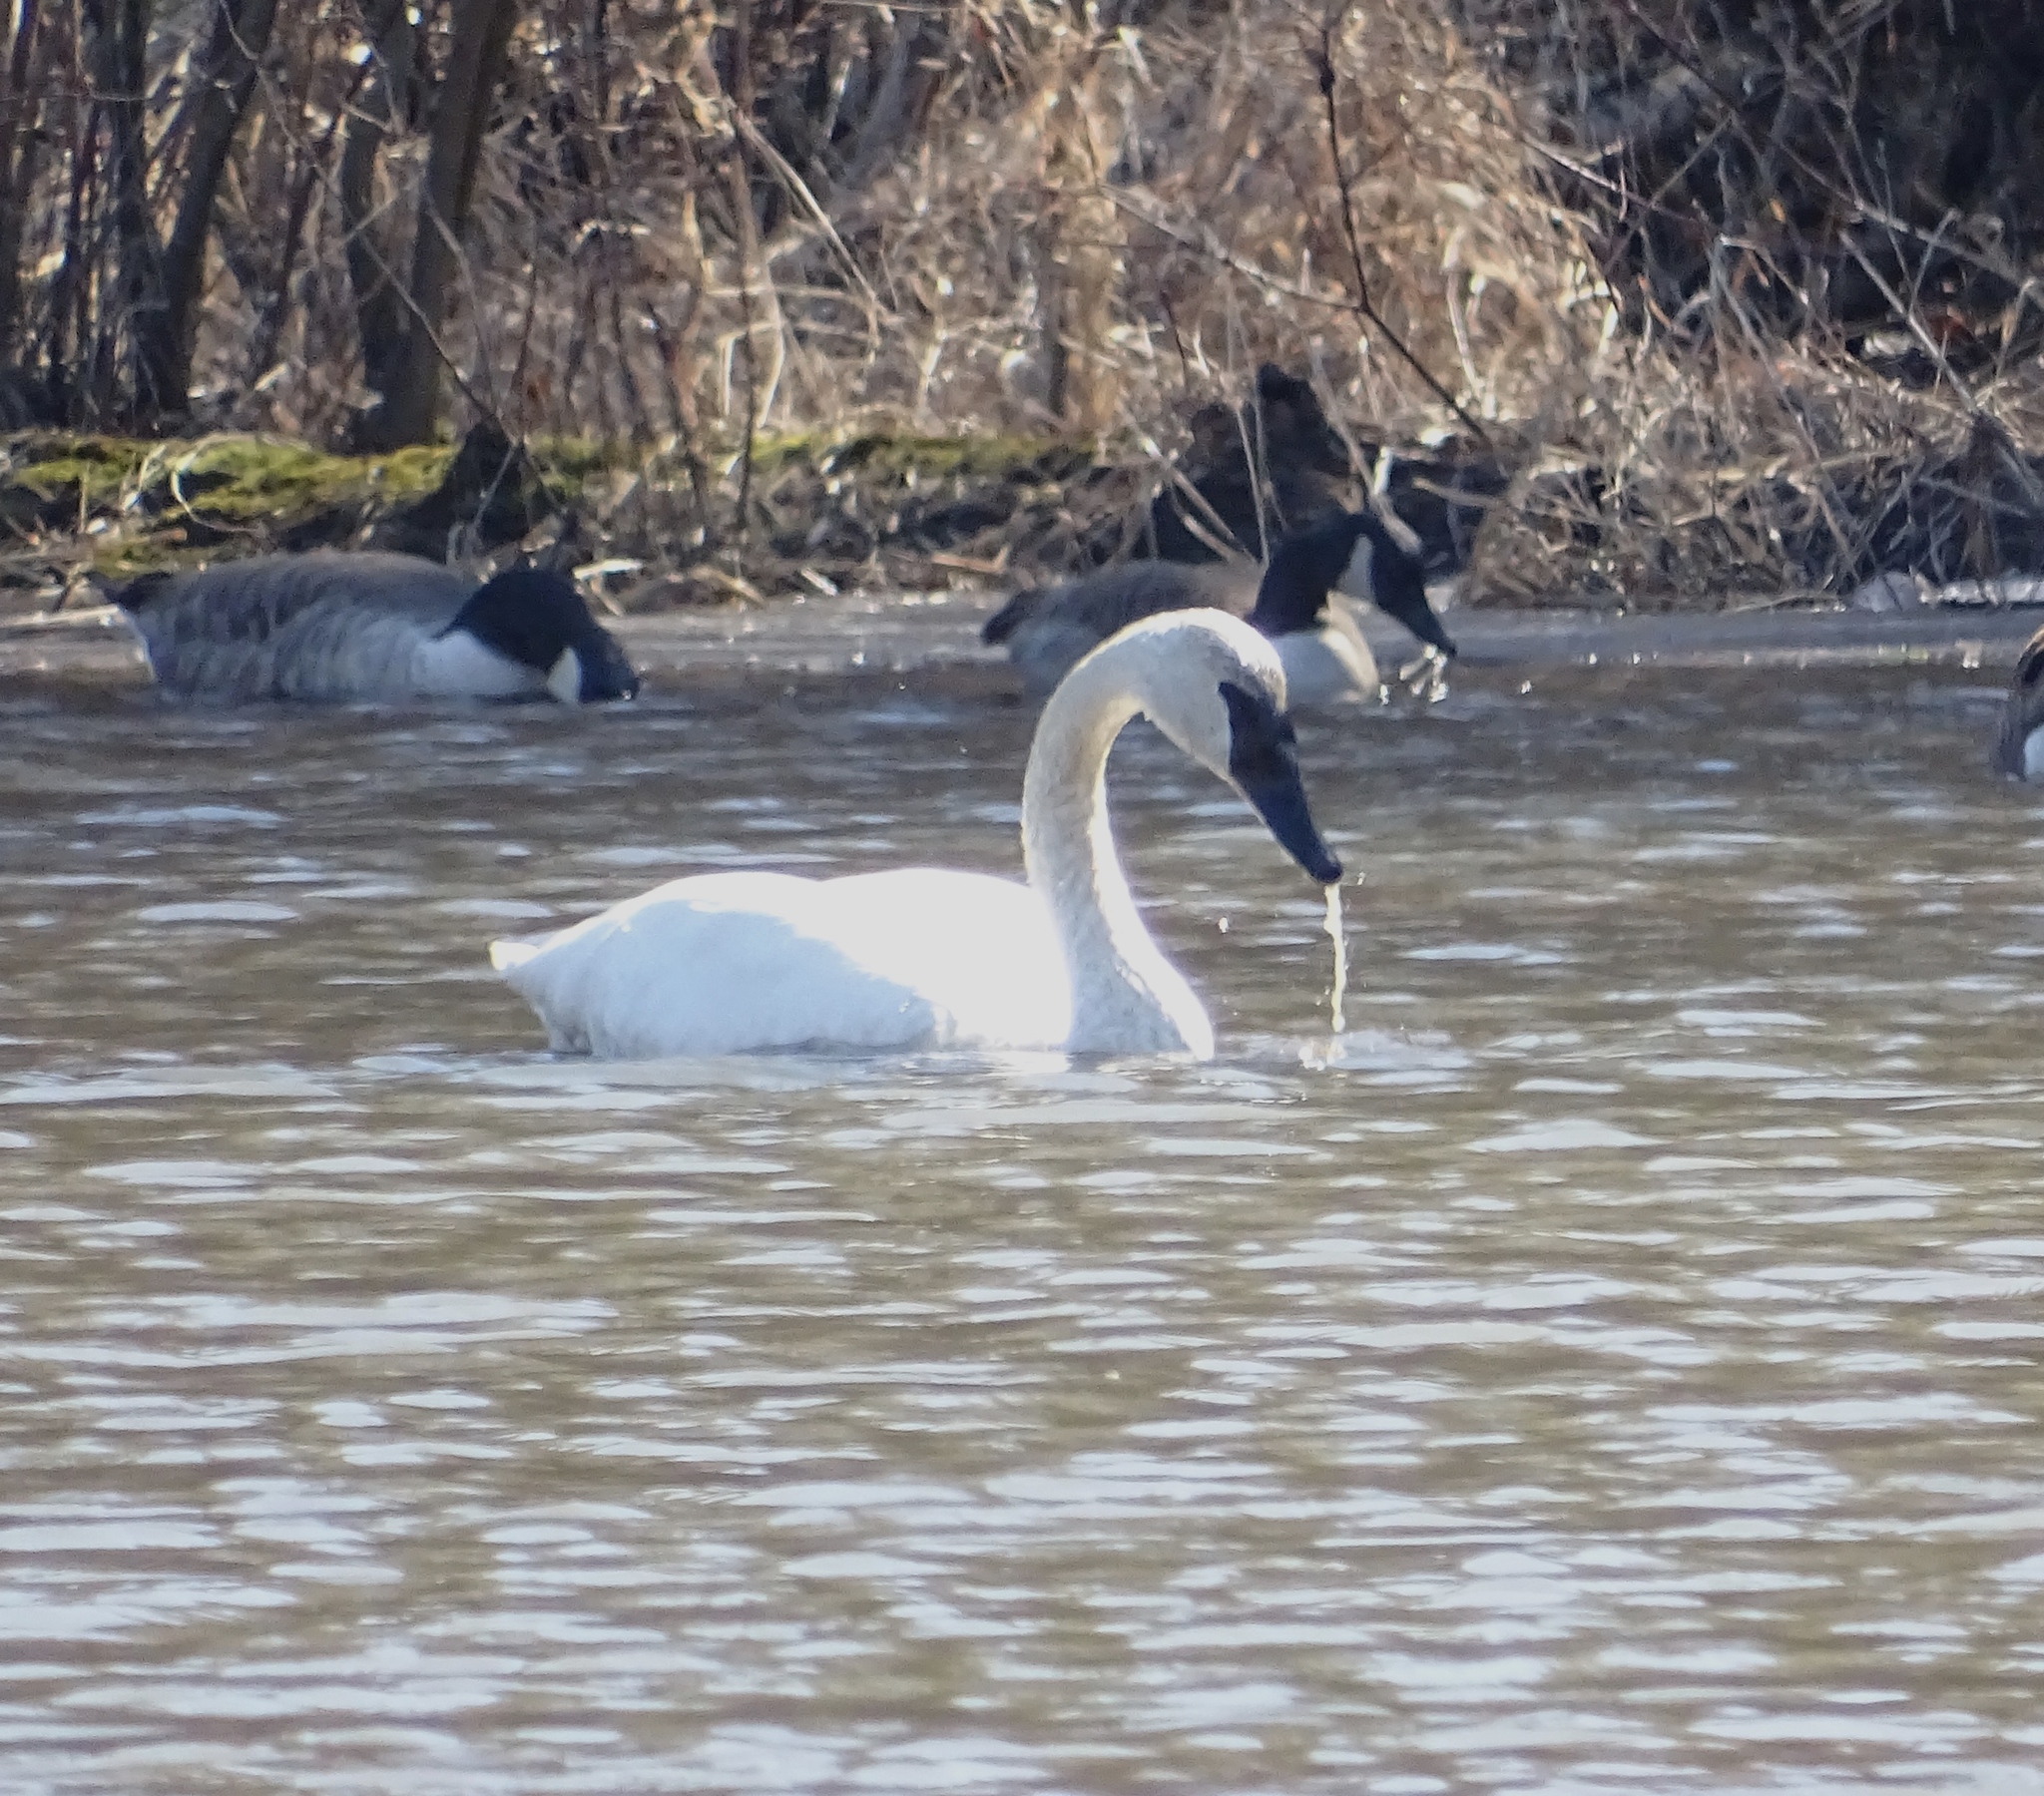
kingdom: Animalia
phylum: Chordata
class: Aves
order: Anseriformes
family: Anatidae
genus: Cygnus
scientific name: Cygnus buccinator
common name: Trumpeter swan
